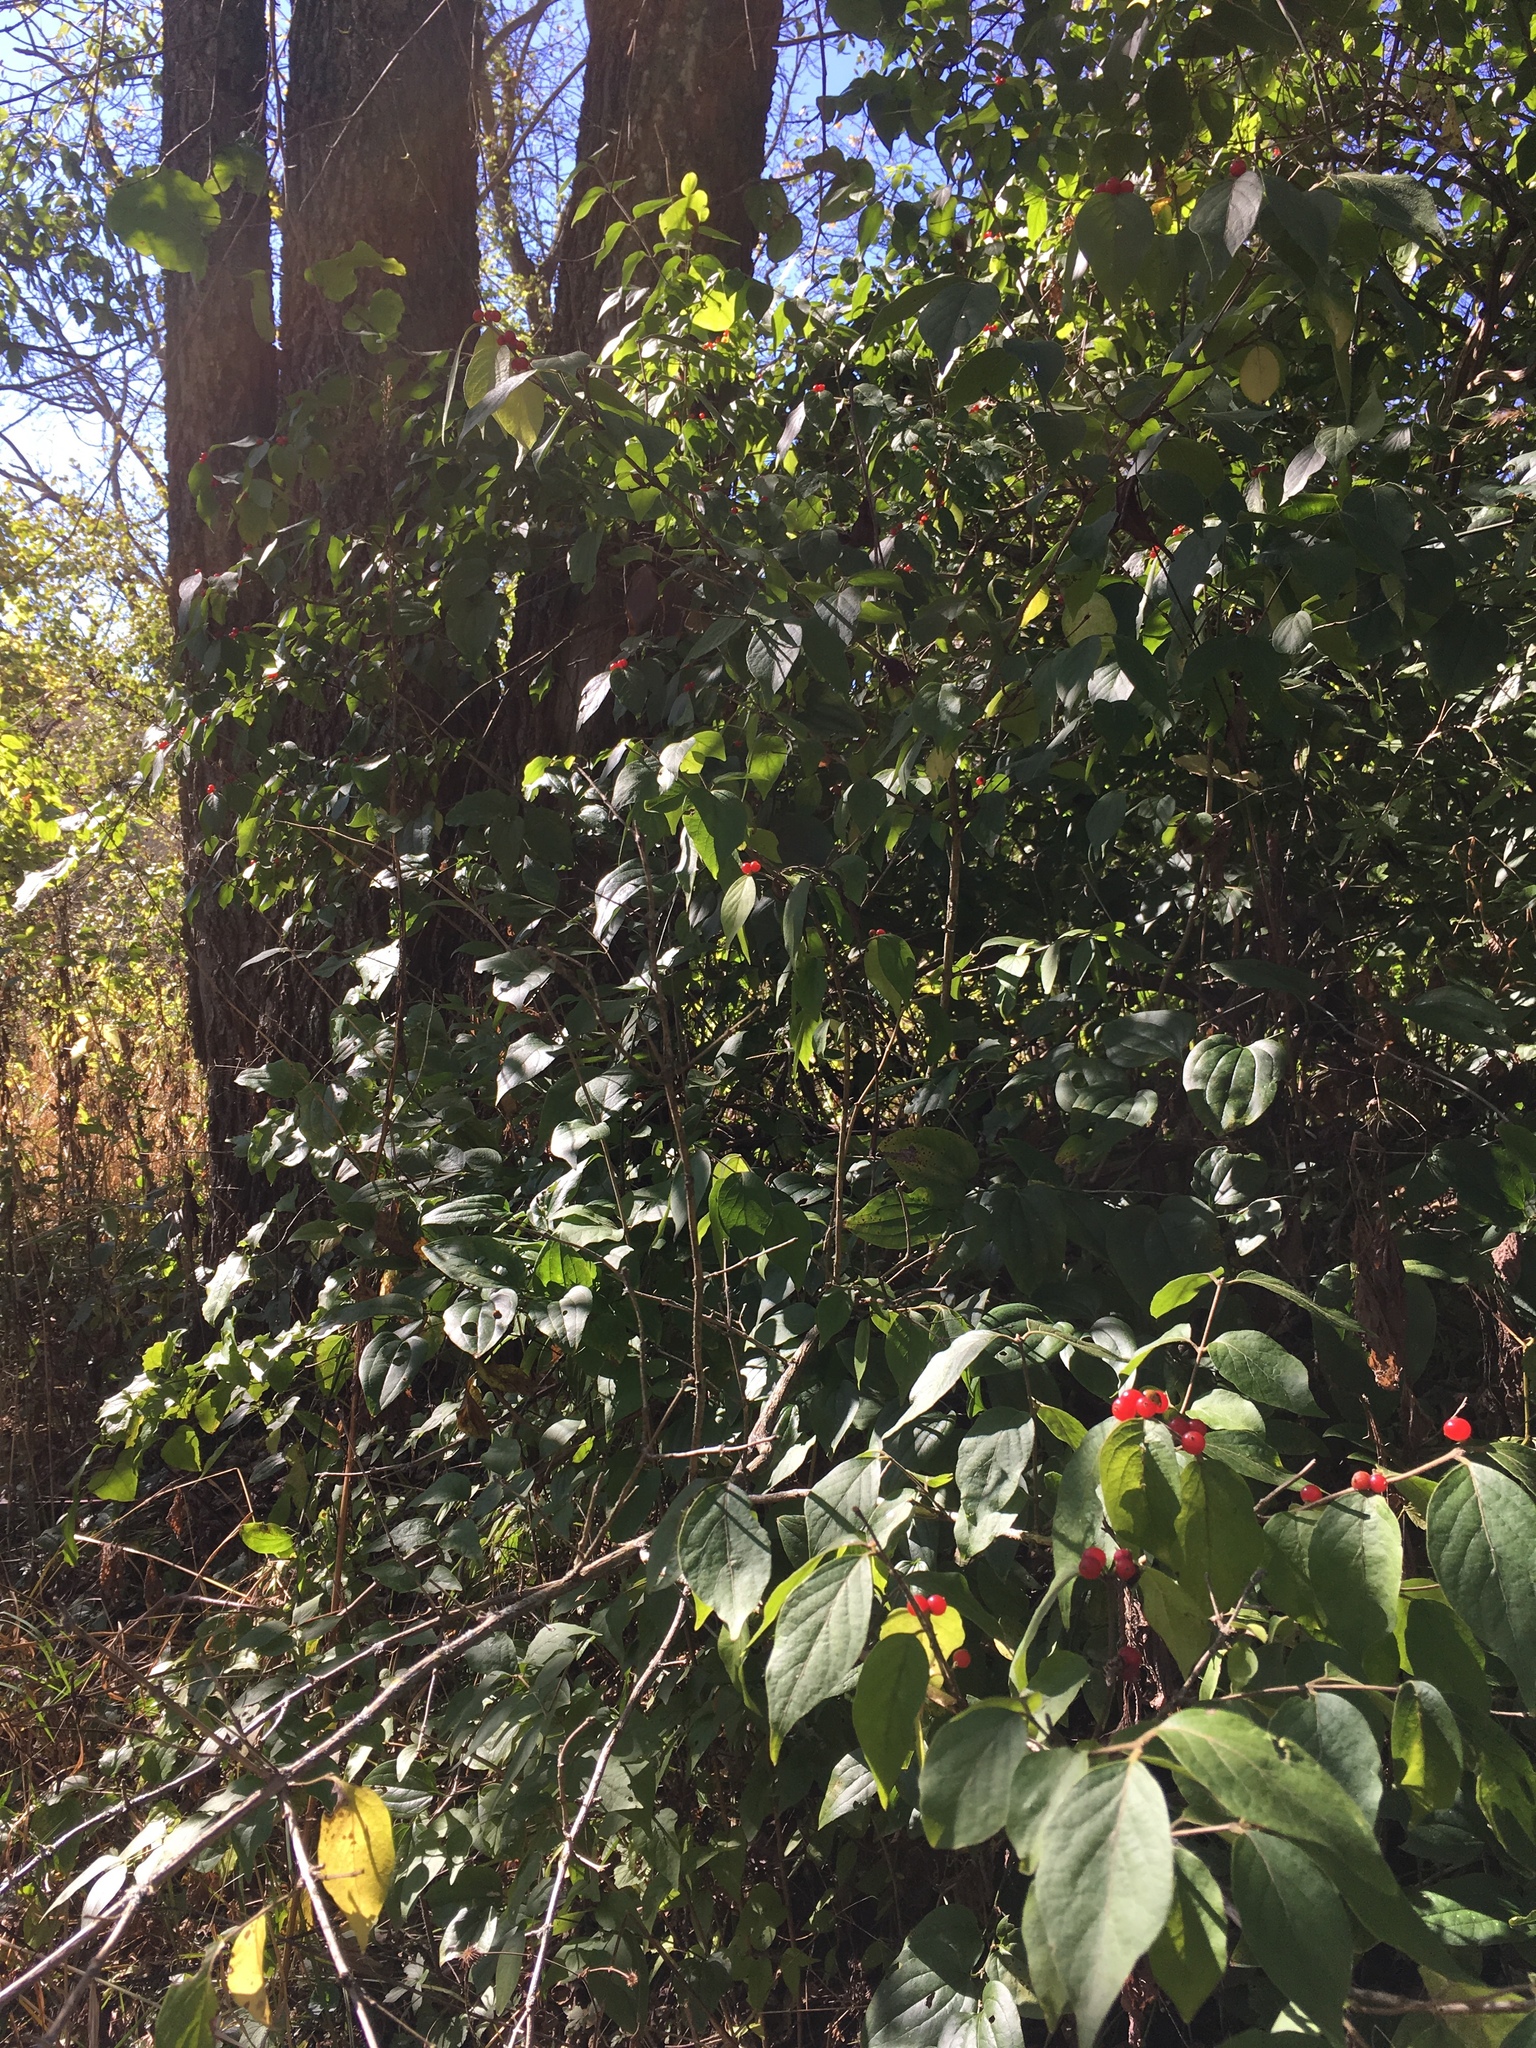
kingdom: Plantae
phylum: Tracheophyta
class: Magnoliopsida
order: Dipsacales
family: Caprifoliaceae
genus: Lonicera
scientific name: Lonicera maackii
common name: Amur honeysuckle
